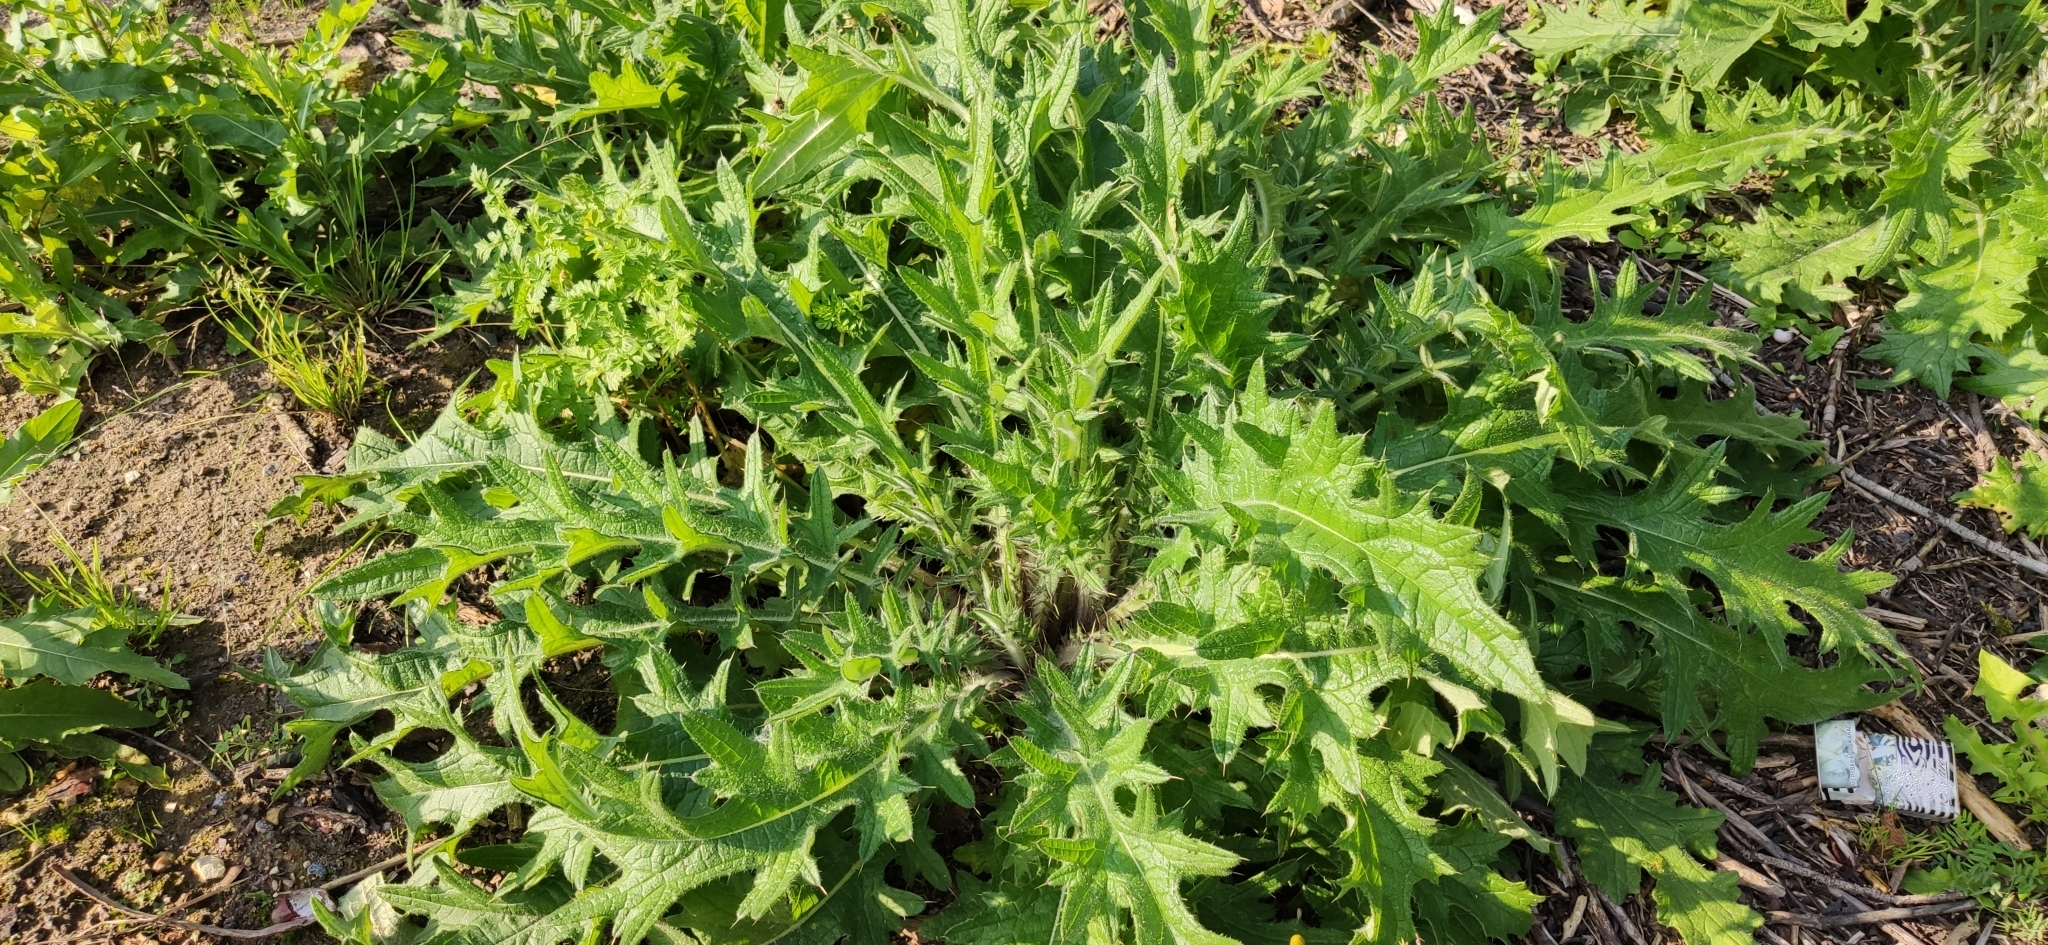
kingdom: Plantae
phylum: Tracheophyta
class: Magnoliopsida
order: Asterales
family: Asteraceae
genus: Cirsium
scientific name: Cirsium vulgare
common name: Bull thistle
